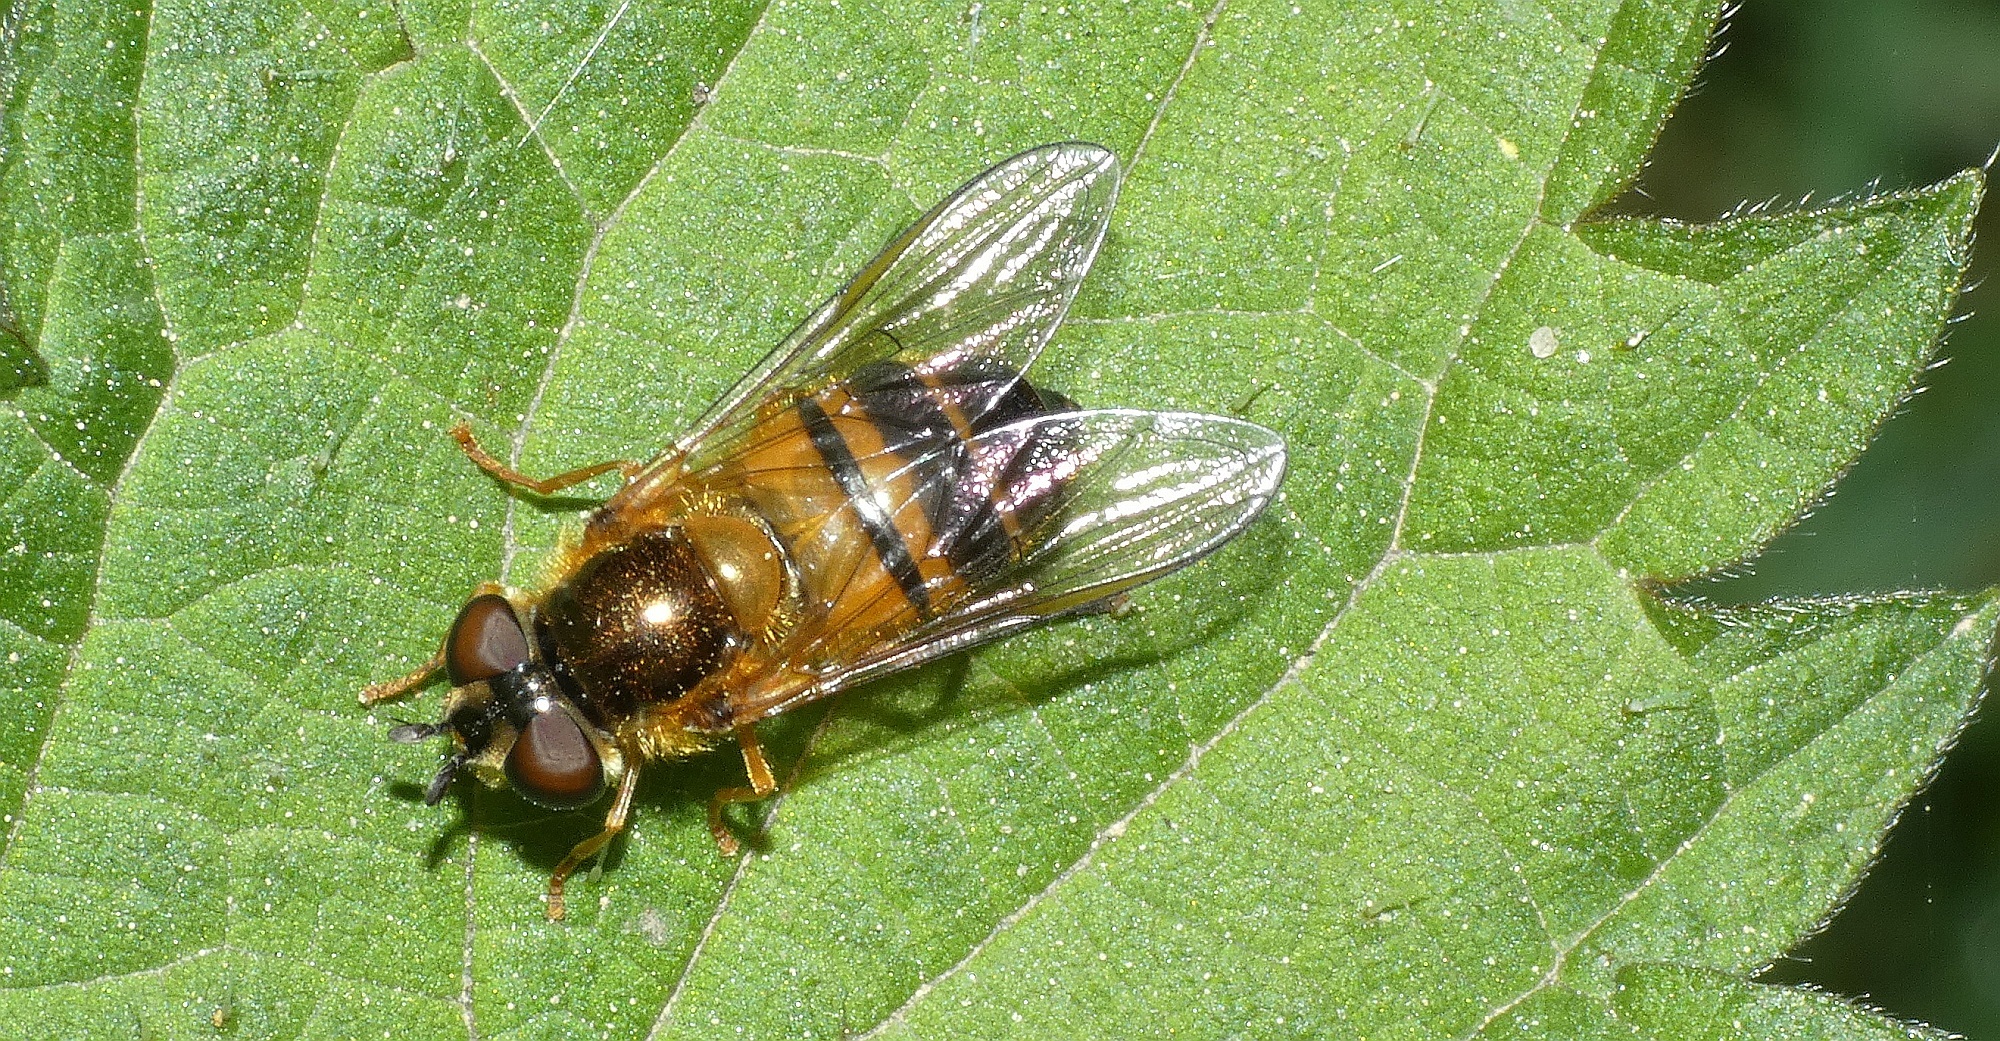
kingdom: Animalia
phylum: Arthropoda
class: Insecta
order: Diptera
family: Syrphidae
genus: Epistrophe
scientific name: Epistrophe eligans
